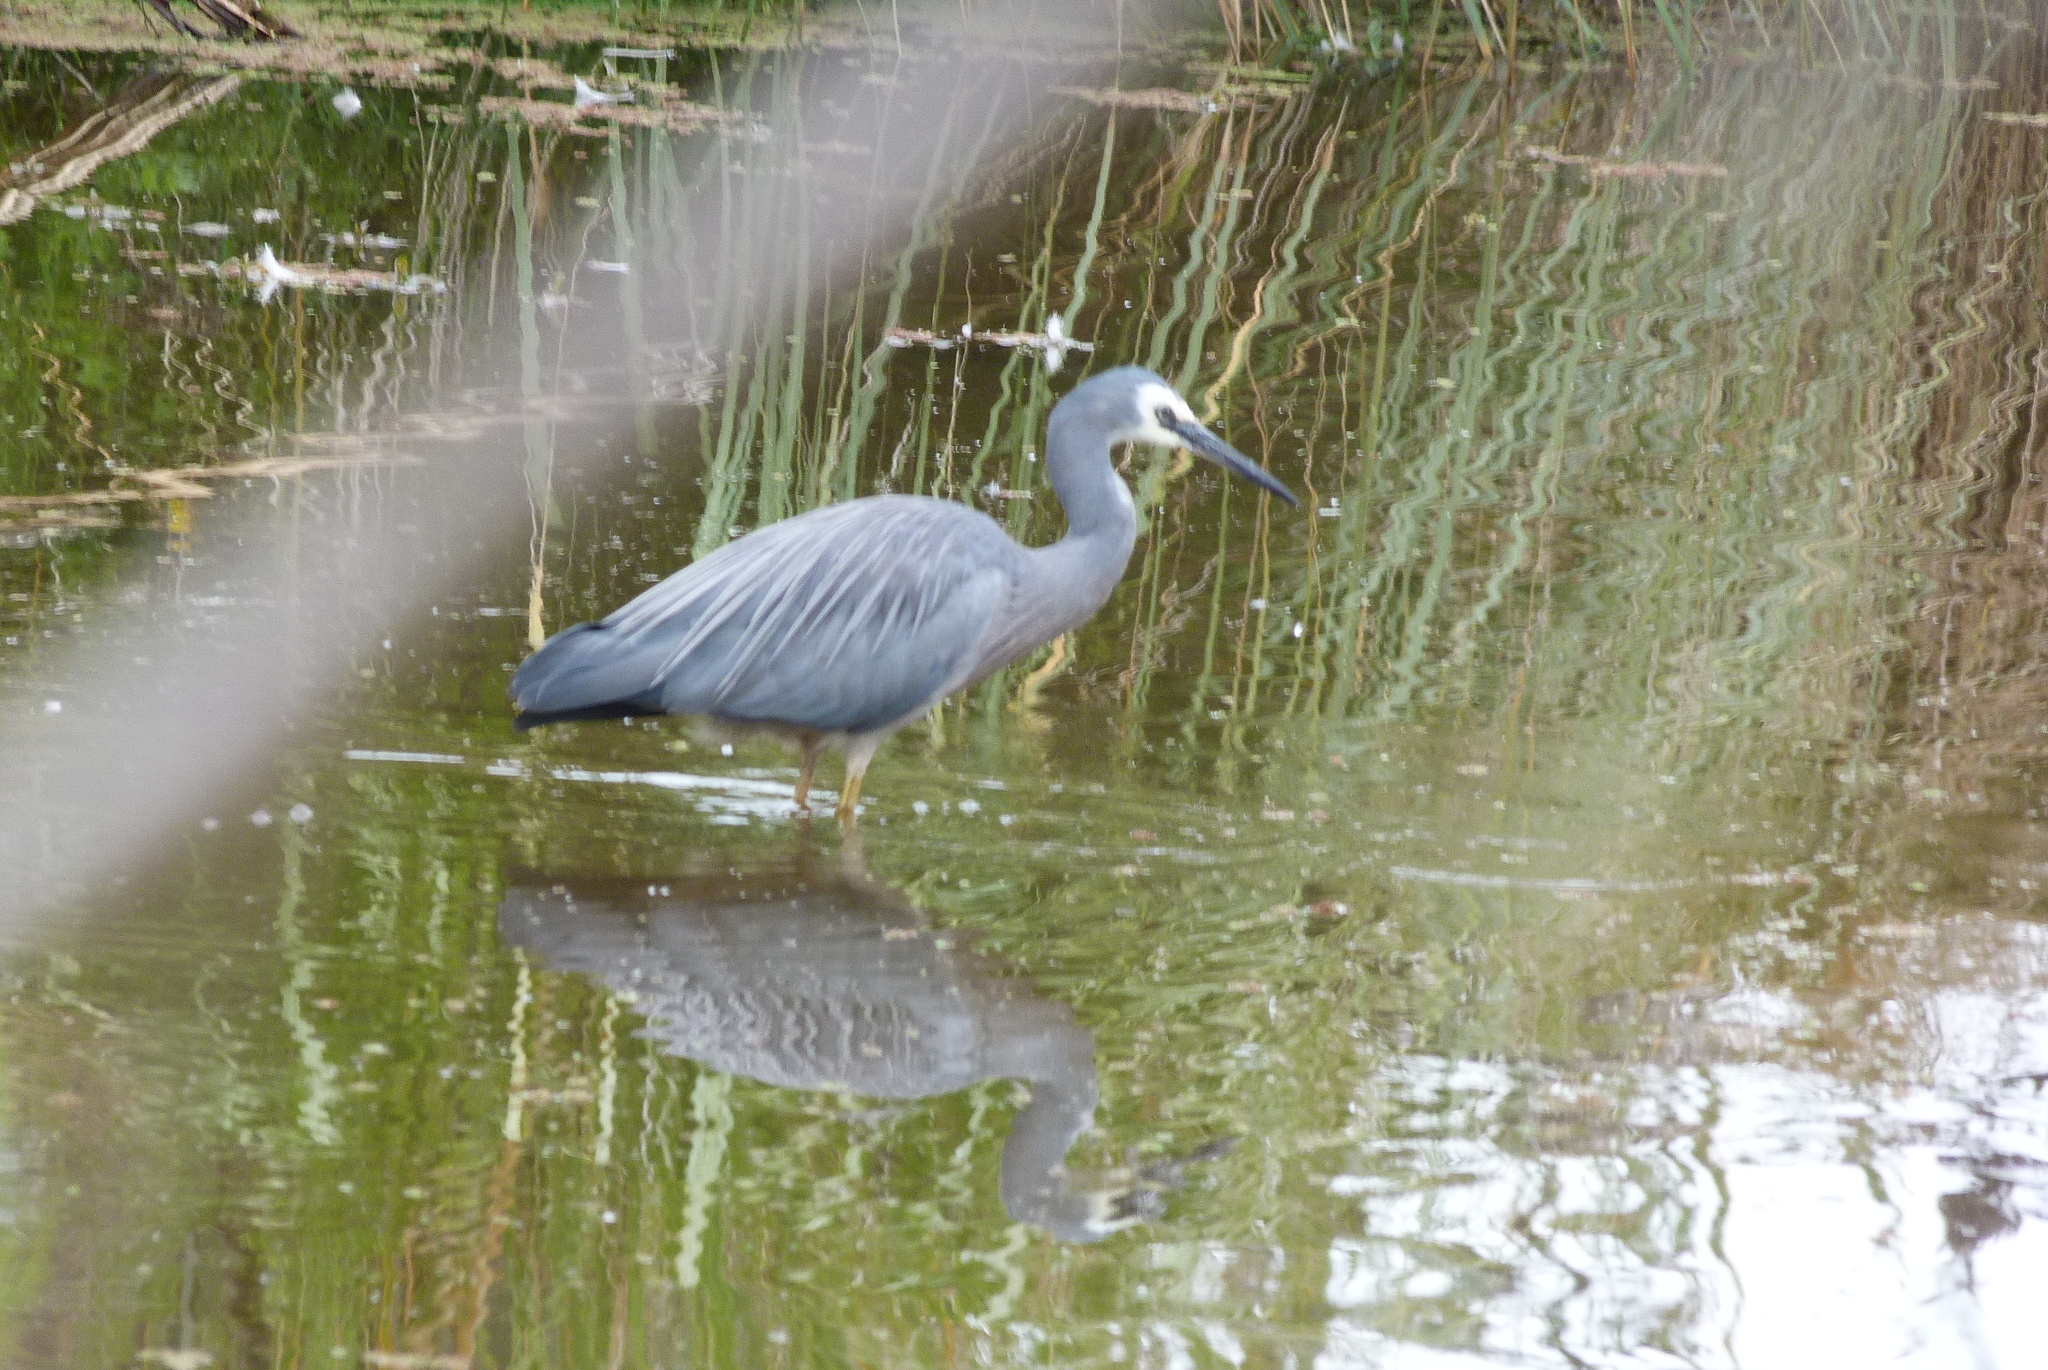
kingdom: Animalia
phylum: Chordata
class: Aves
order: Pelecaniformes
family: Ardeidae
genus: Egretta
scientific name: Egretta novaehollandiae
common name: White-faced heron
